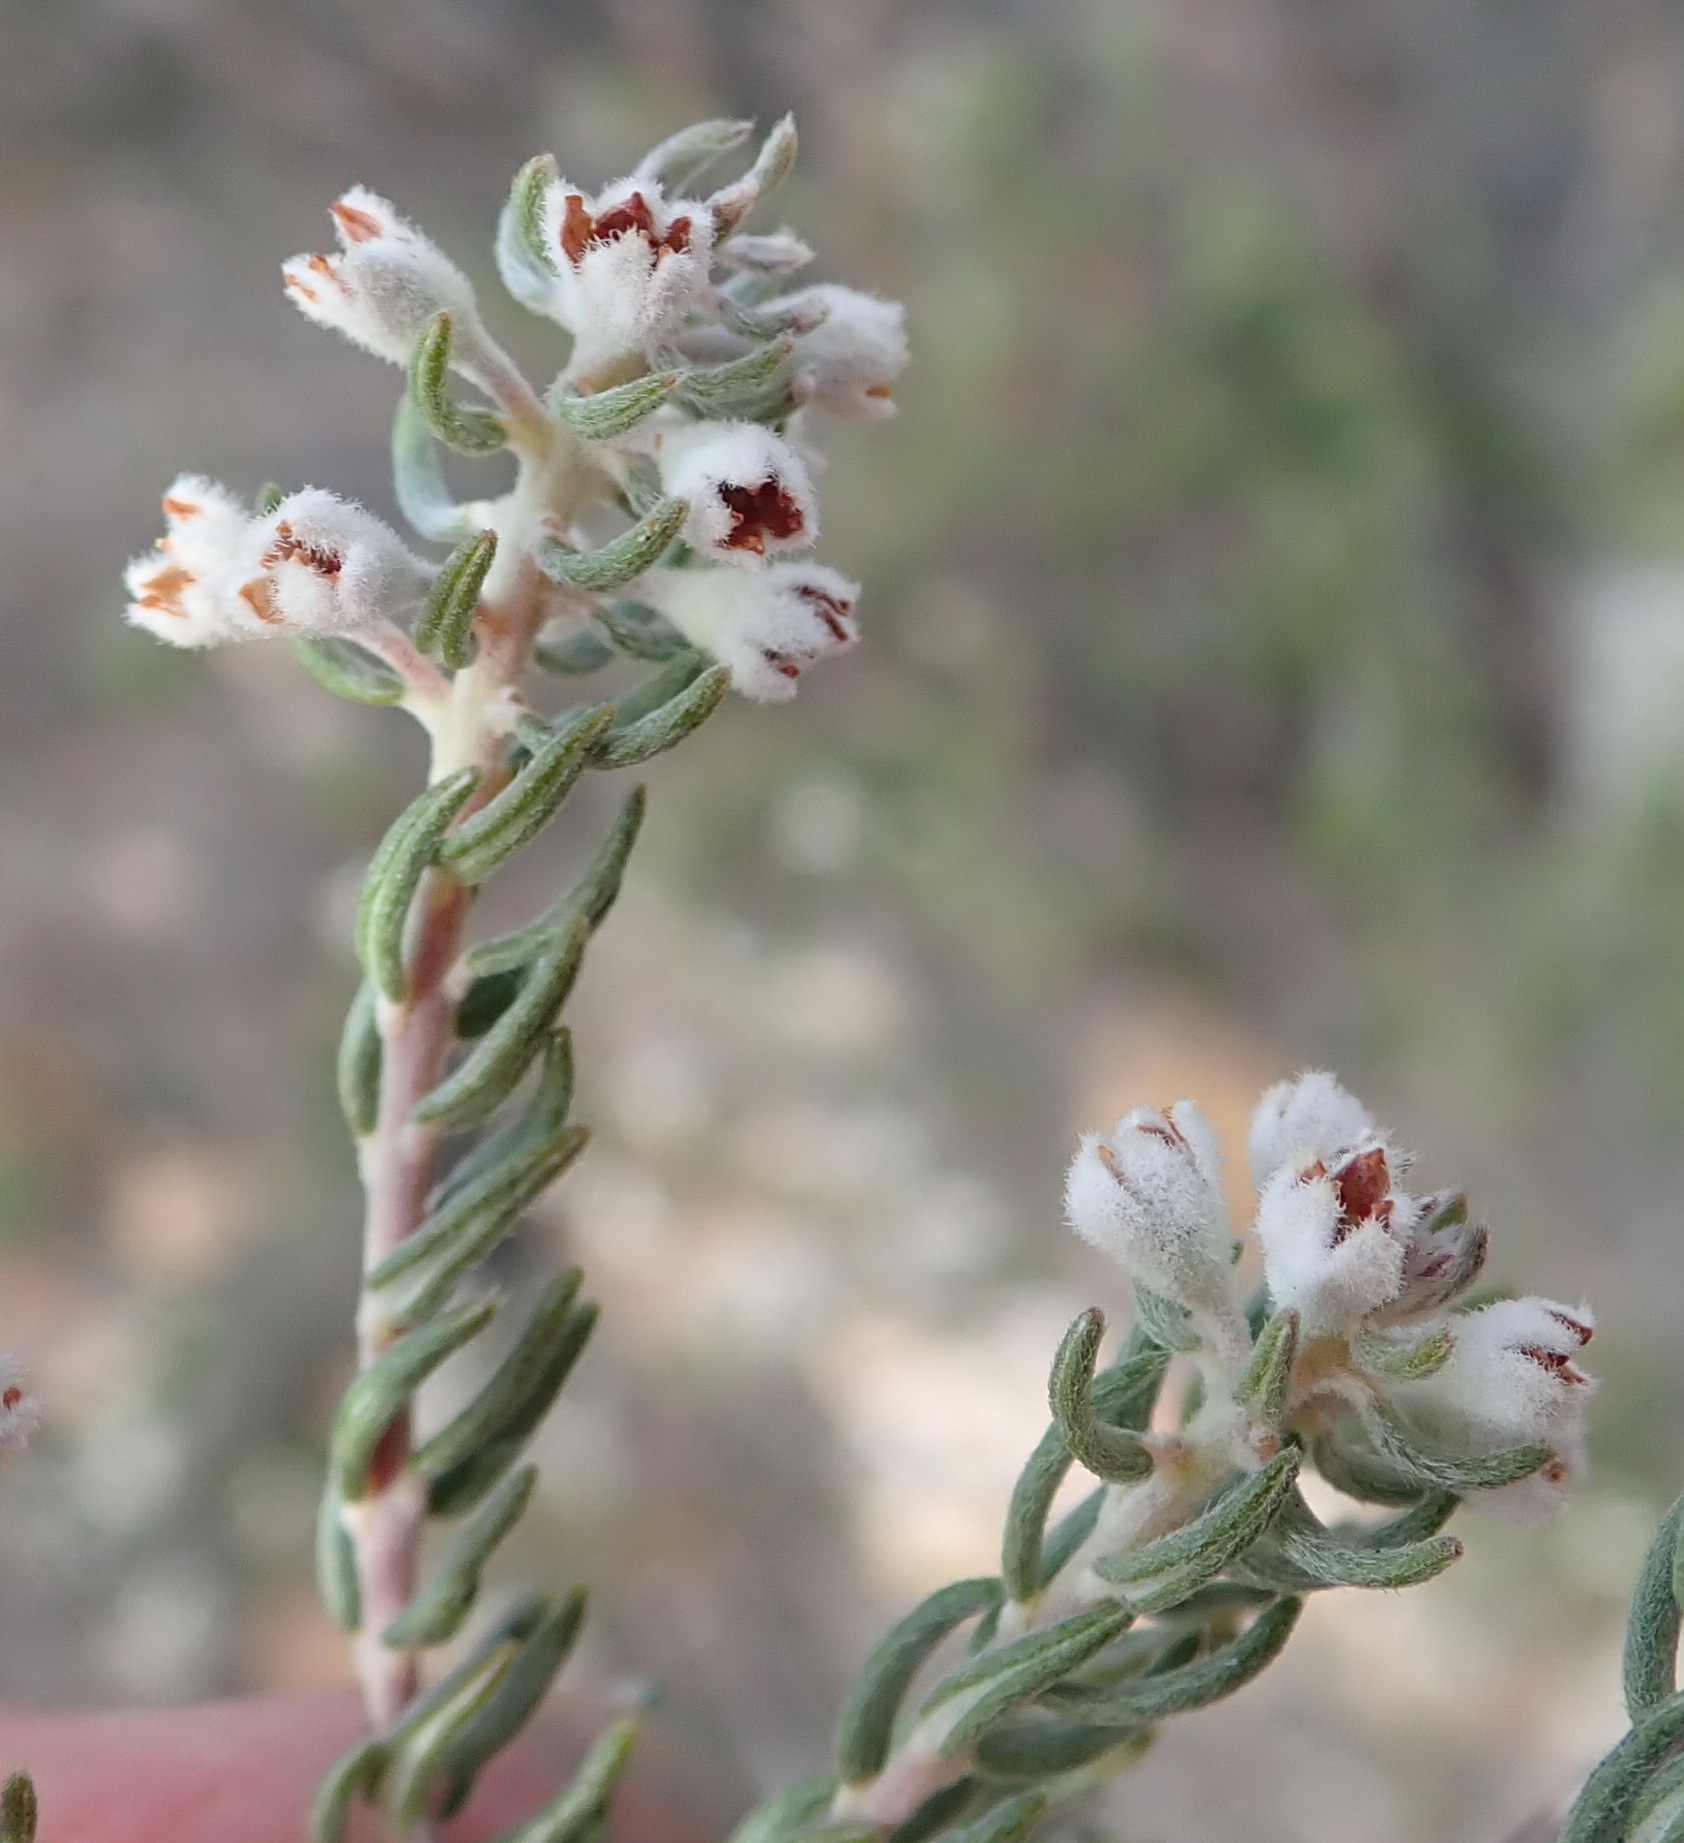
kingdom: Plantae
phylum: Tracheophyta
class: Magnoliopsida
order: Rosales
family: Rhamnaceae
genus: Phylica
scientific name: Phylica axillaris
